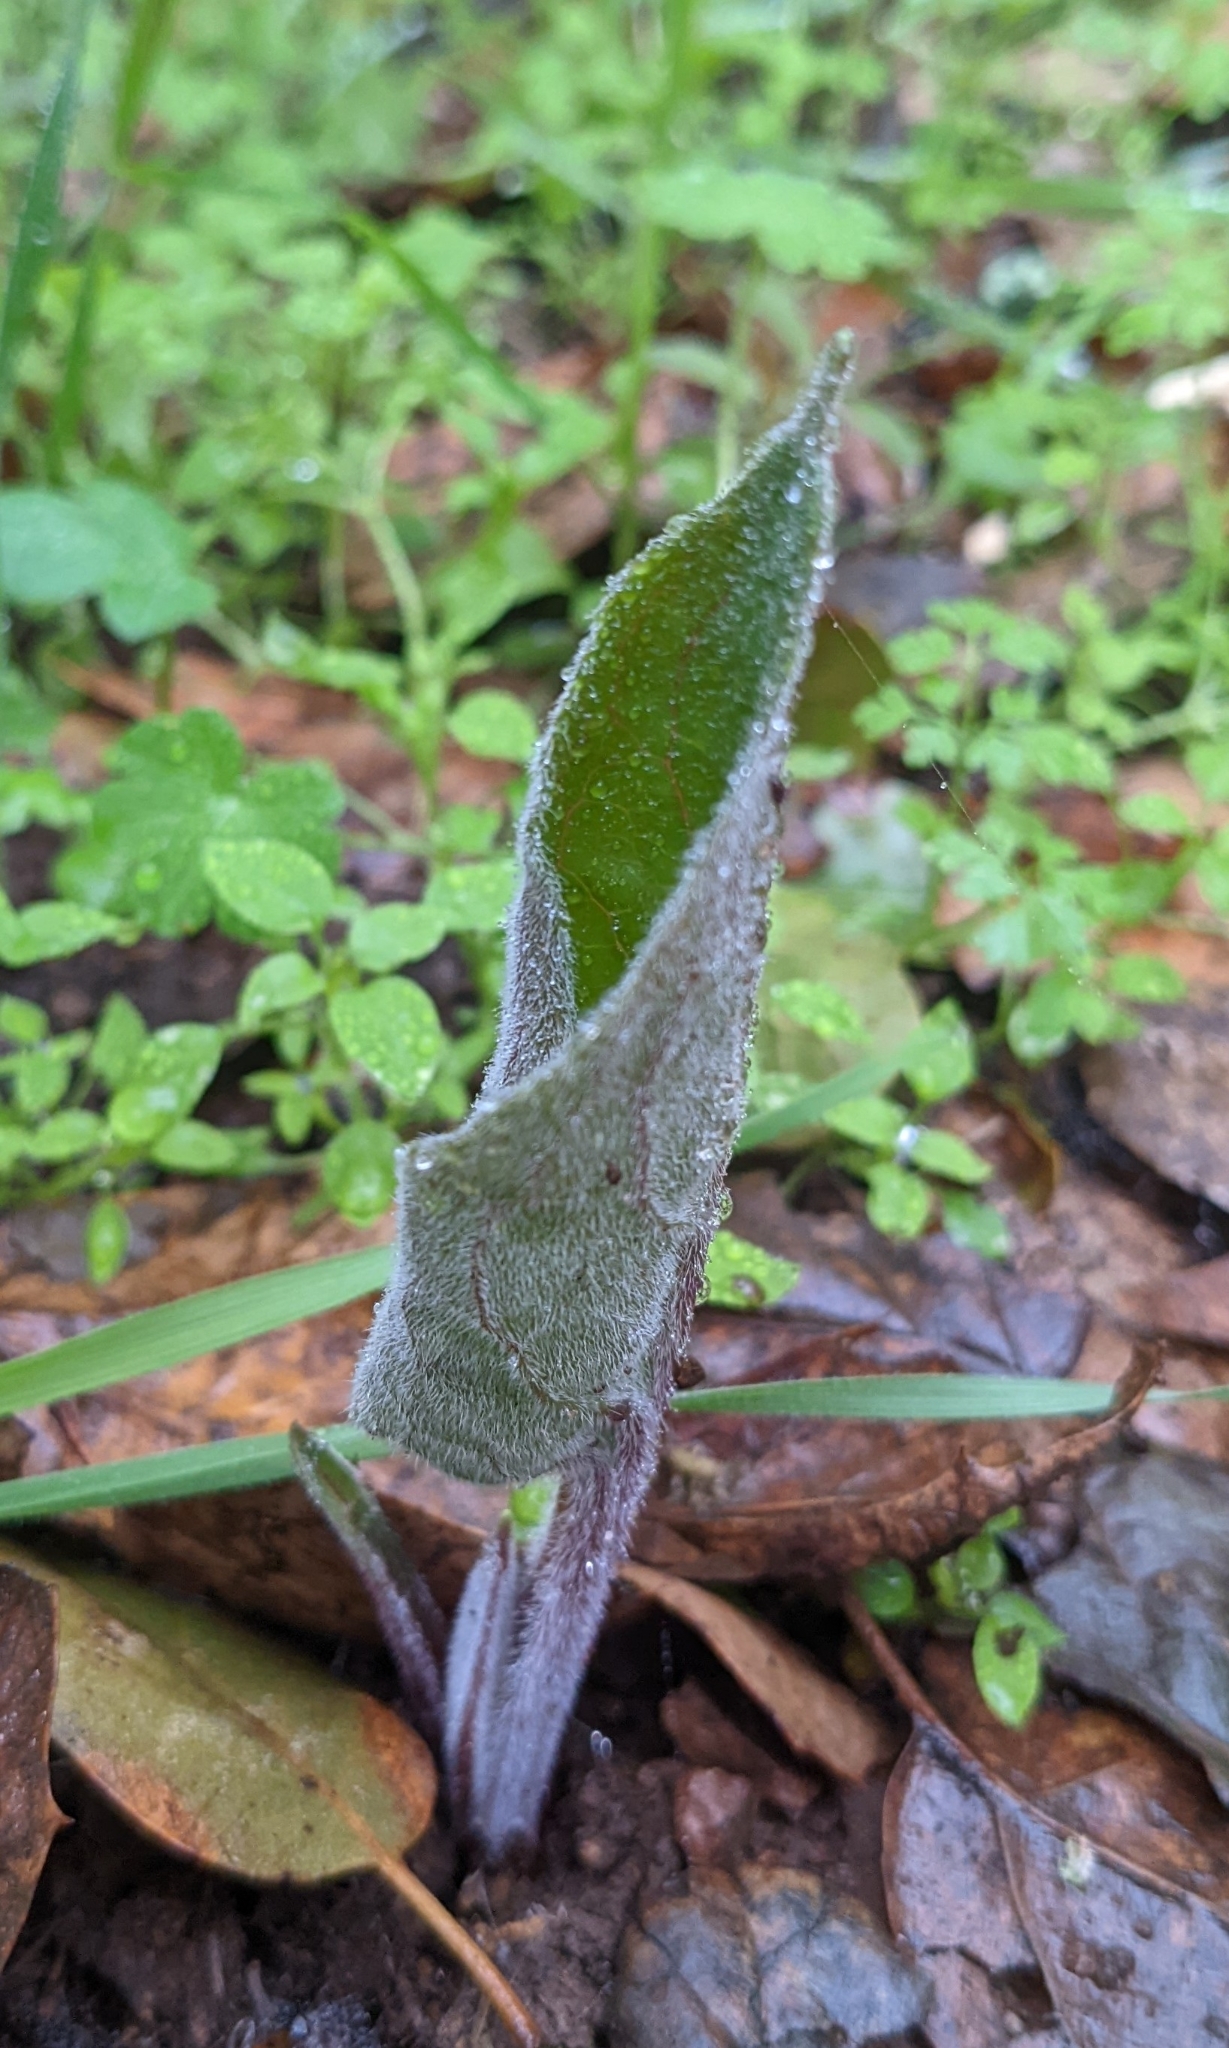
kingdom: Plantae
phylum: Tracheophyta
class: Magnoliopsida
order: Boraginales
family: Boraginaceae
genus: Adelinia
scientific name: Adelinia grande
